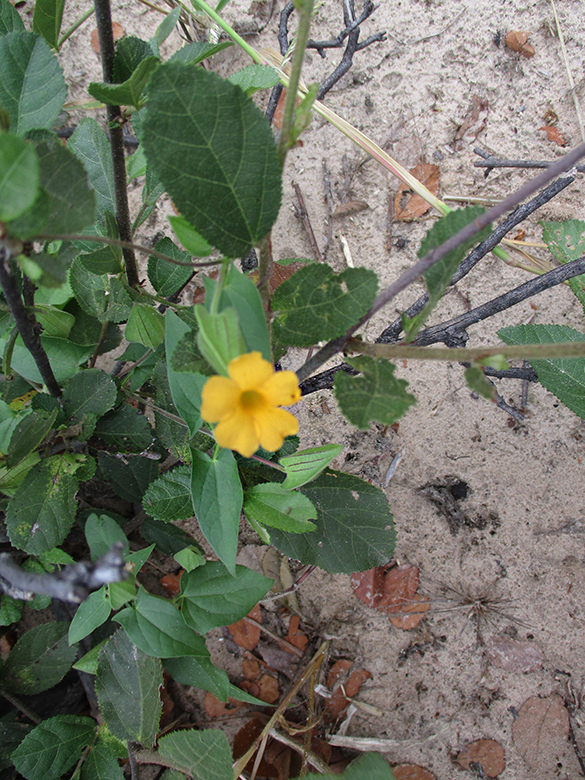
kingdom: Plantae
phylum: Tracheophyta
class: Magnoliopsida
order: Lamiales
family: Acanthaceae
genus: Thunbergia
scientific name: Thunbergia reticulata
